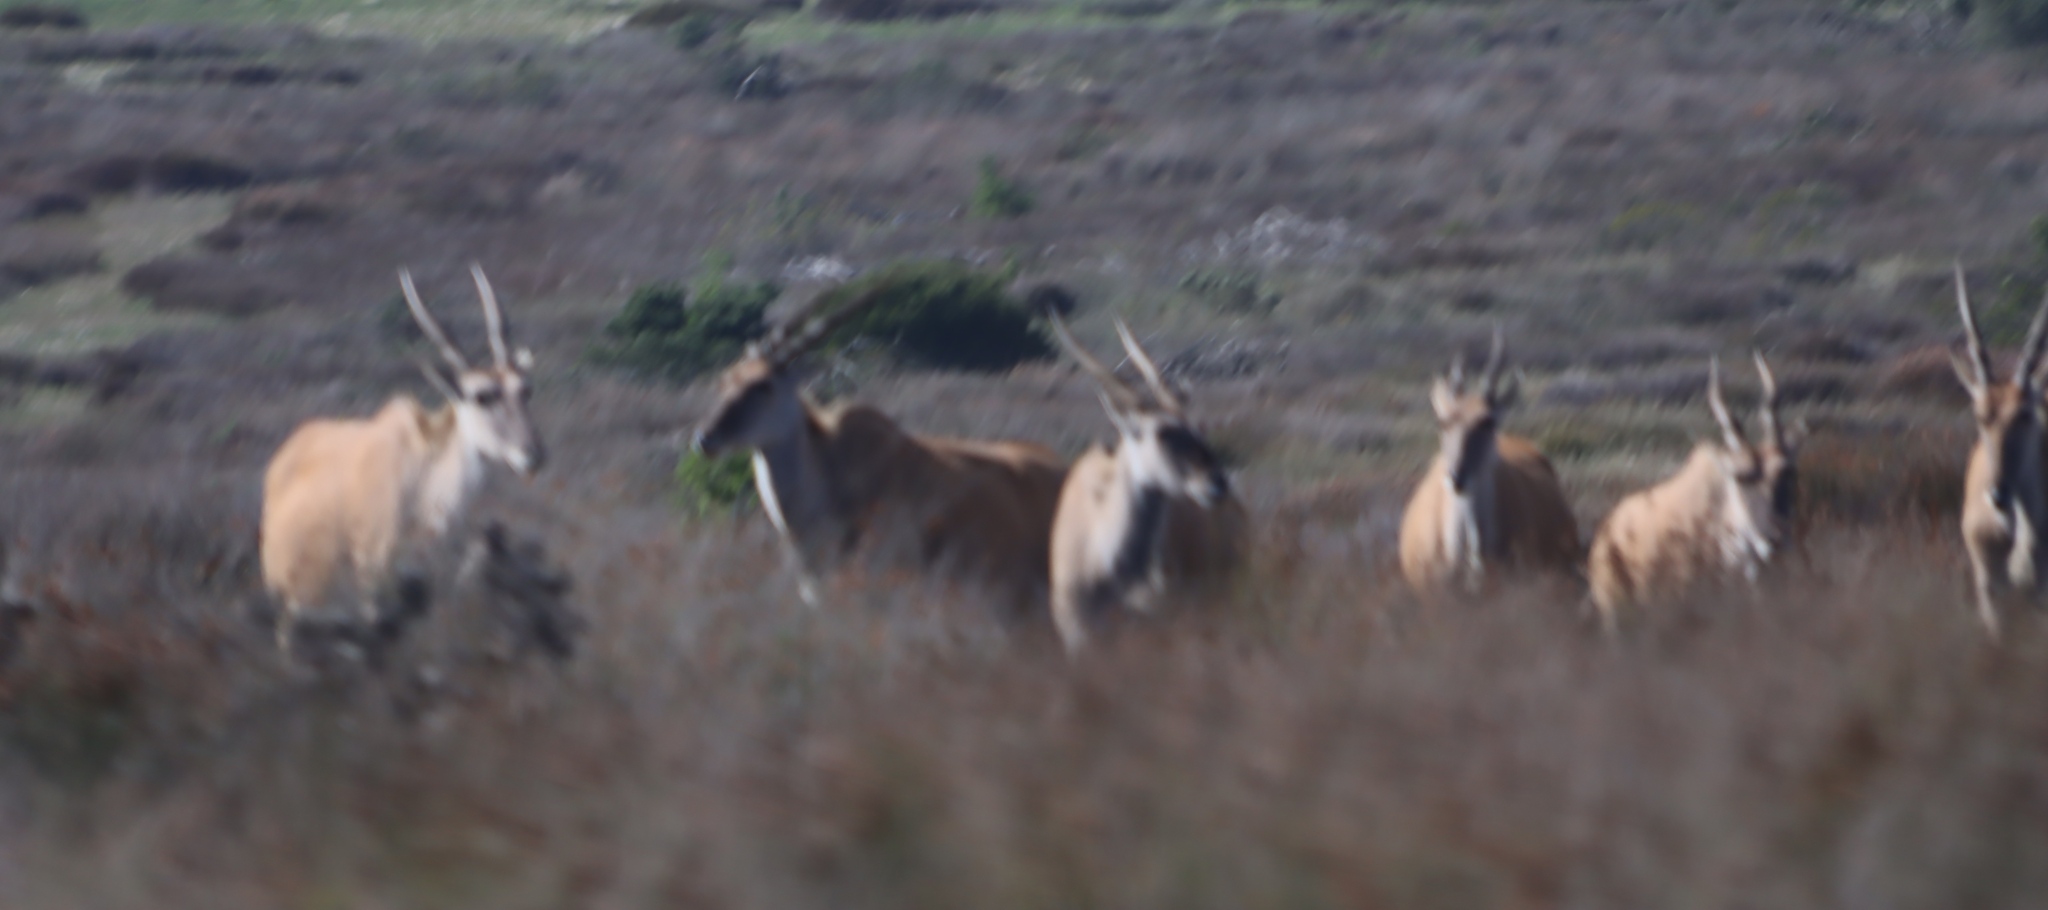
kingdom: Animalia
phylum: Chordata
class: Mammalia
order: Artiodactyla
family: Bovidae
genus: Taurotragus
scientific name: Taurotragus oryx
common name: Common eland
